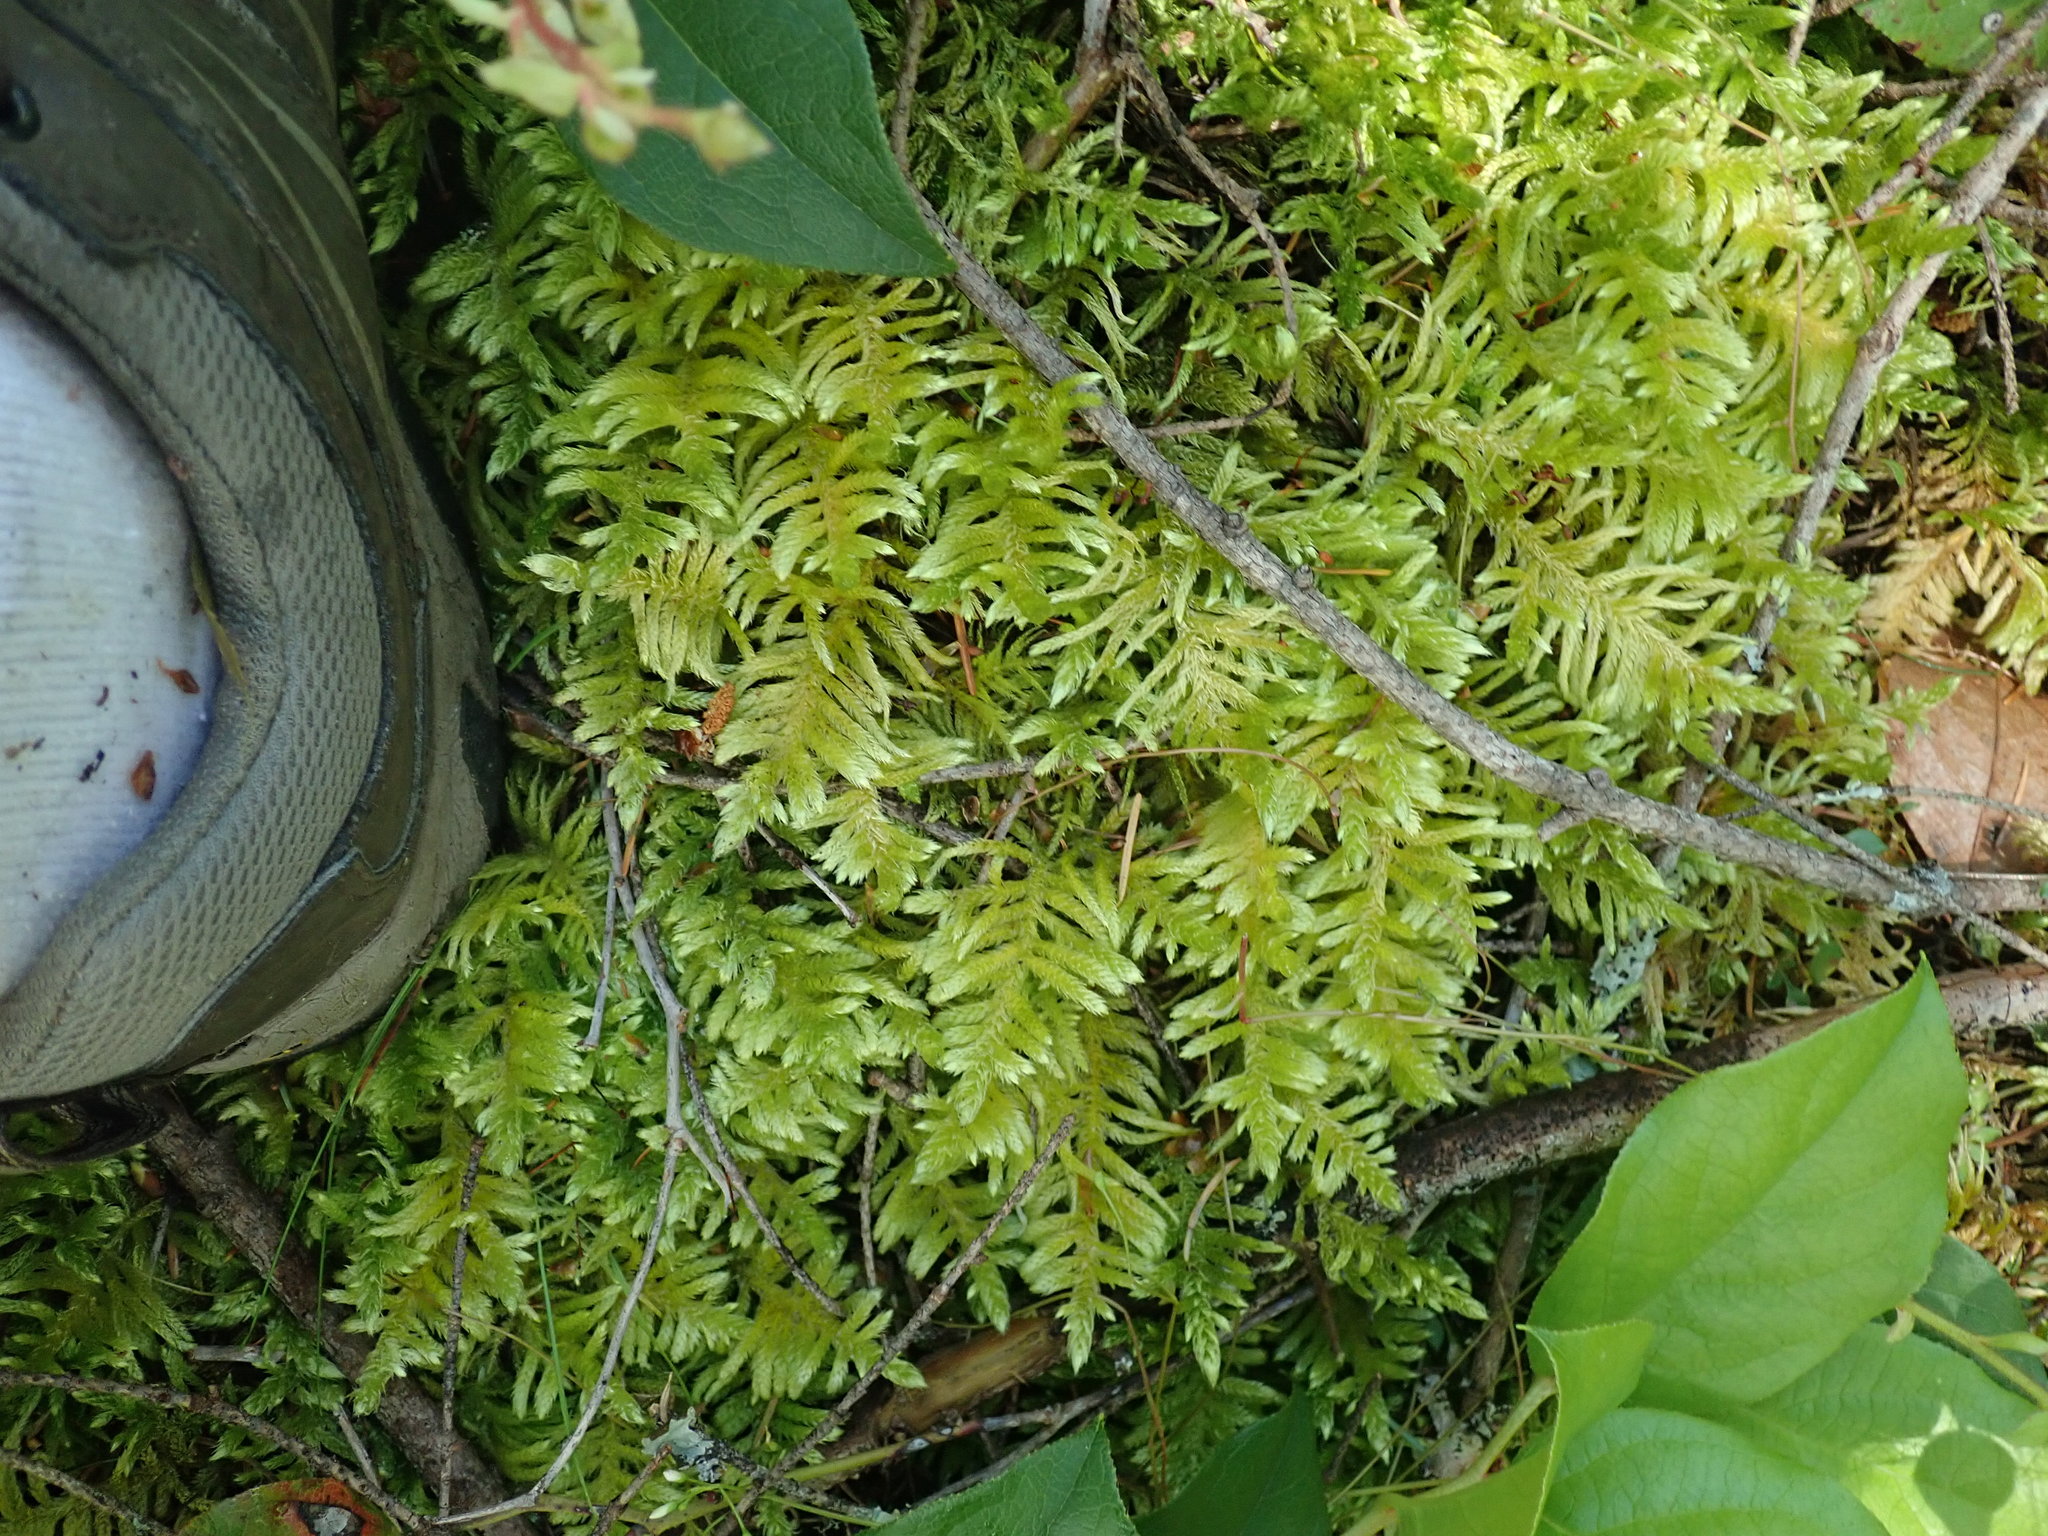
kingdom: Plantae
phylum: Bryophyta
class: Bryopsida
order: Hypnales
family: Brachytheciaceae
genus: Homalothecium
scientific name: Homalothecium megaptilum
